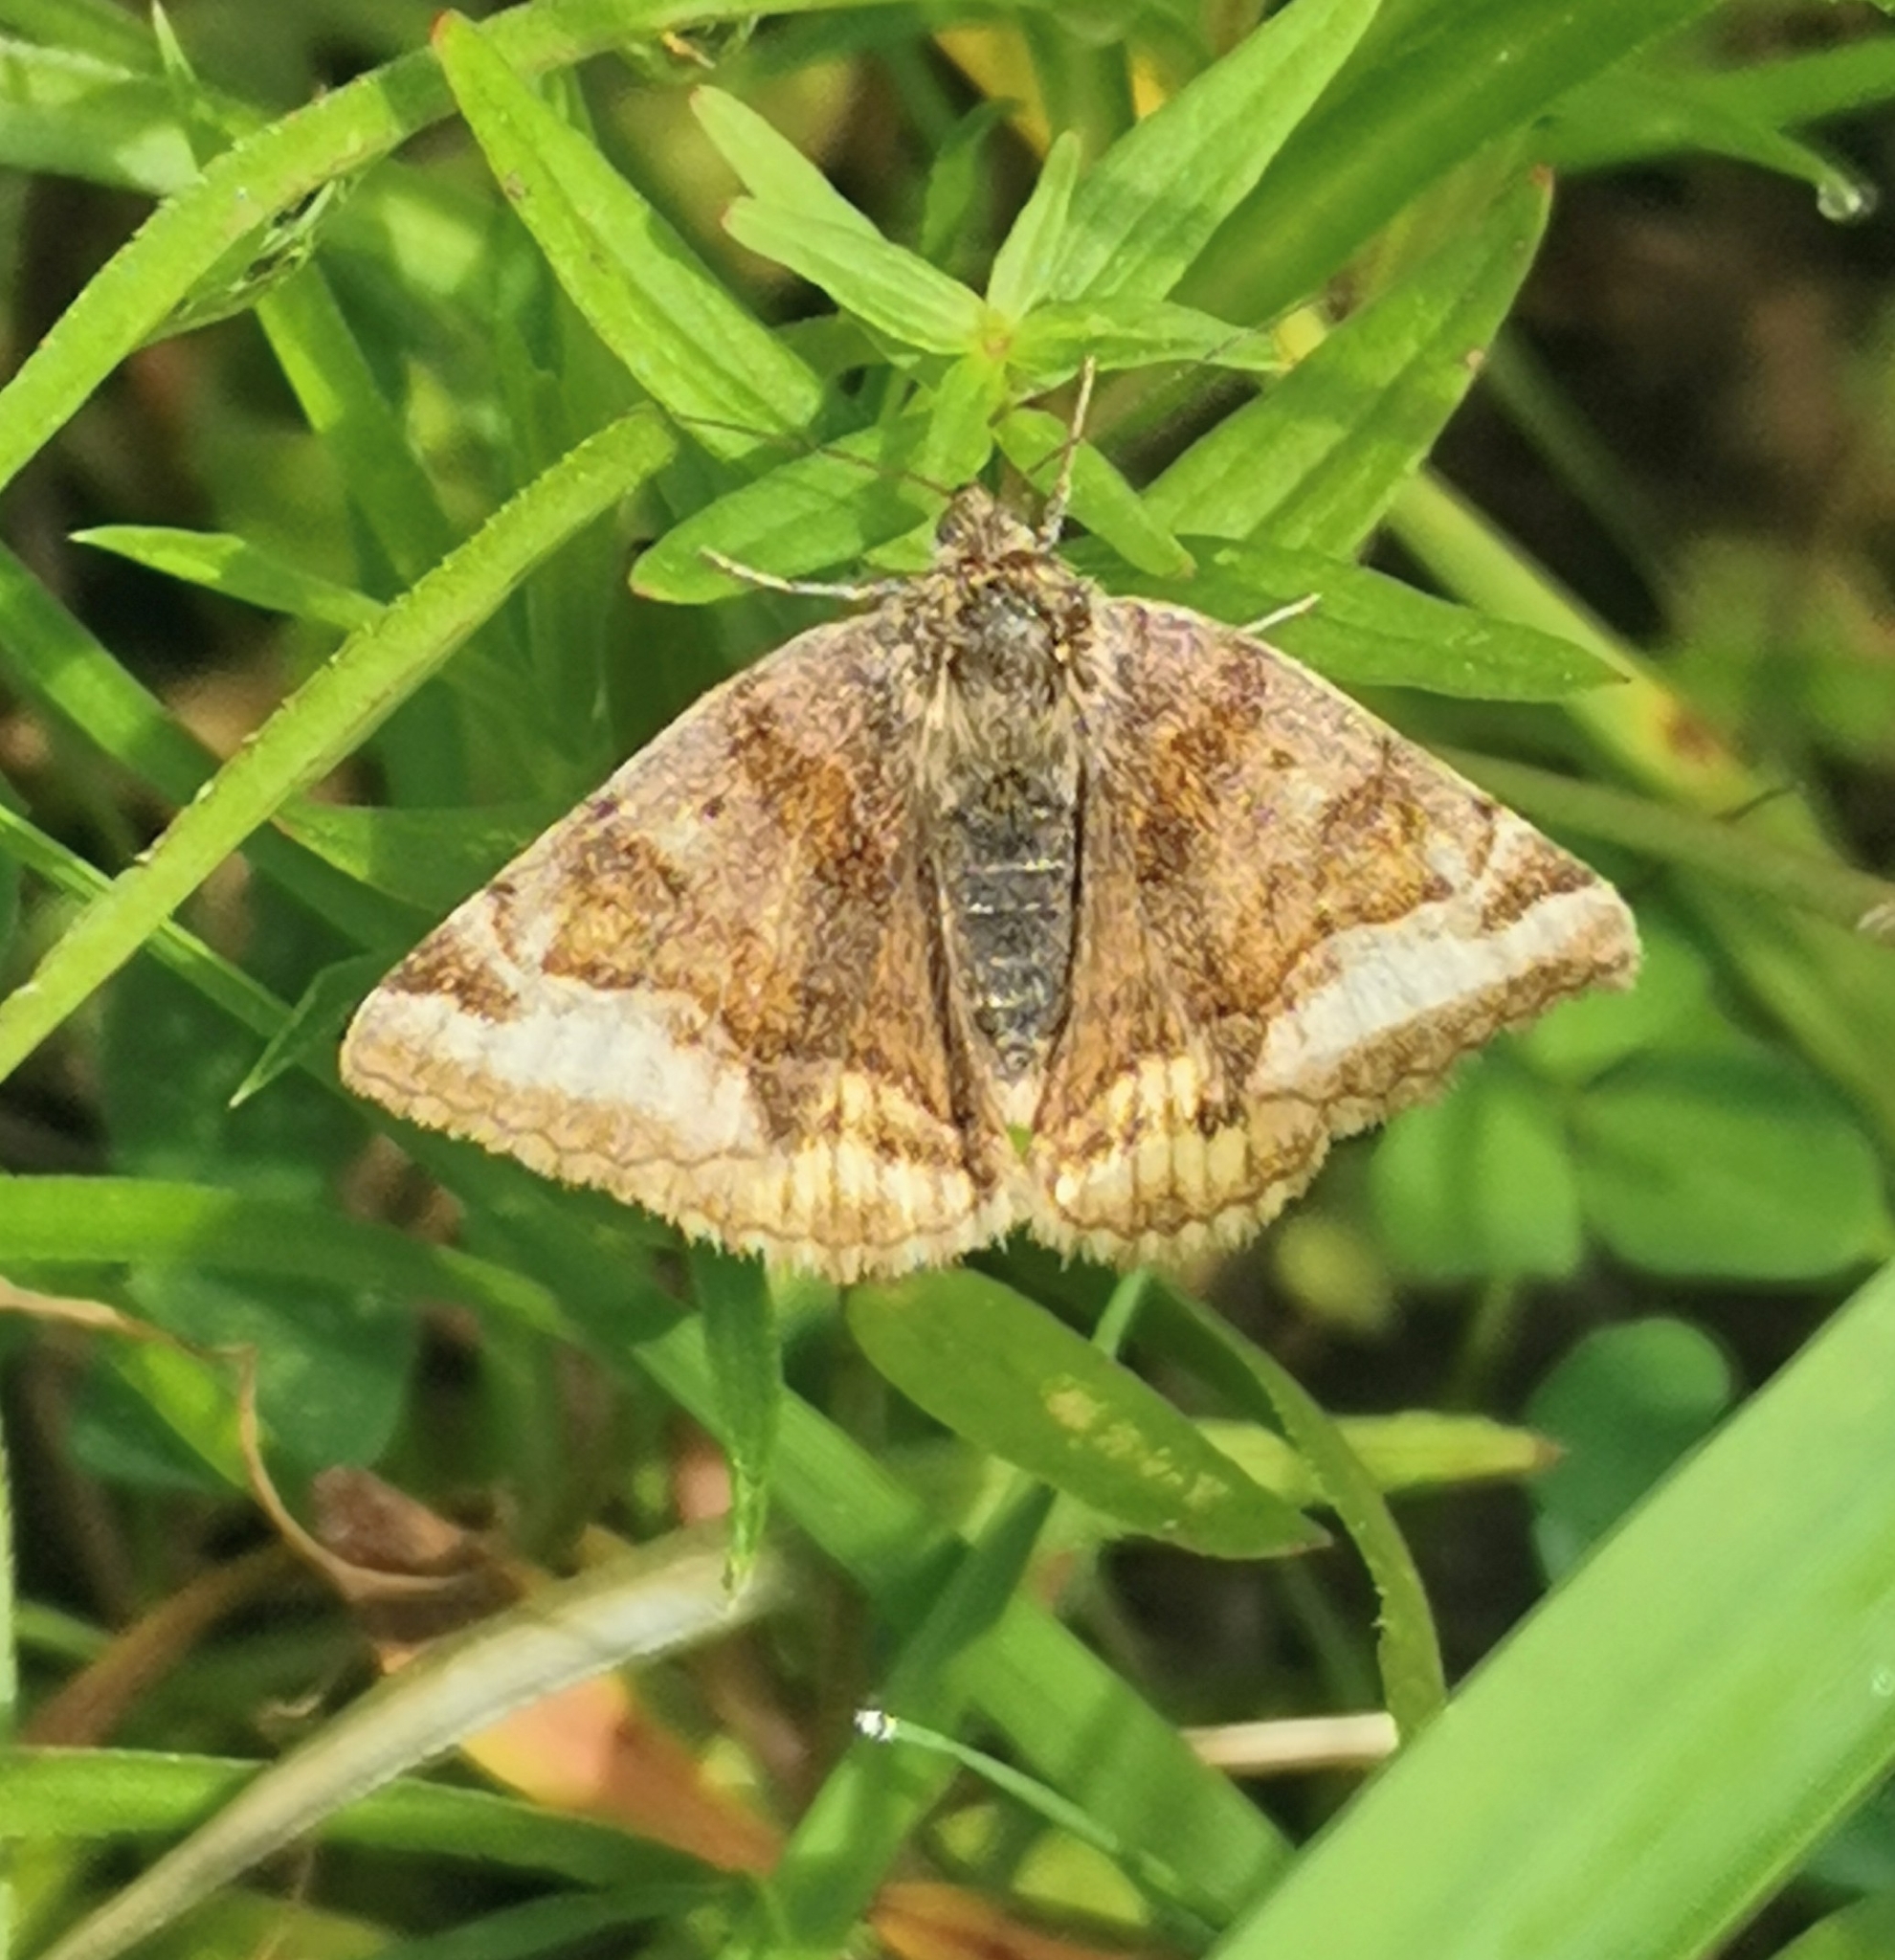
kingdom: Animalia
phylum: Arthropoda
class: Insecta
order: Lepidoptera
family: Erebidae
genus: Euclidia
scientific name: Euclidia glyphica
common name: Burnet companion
